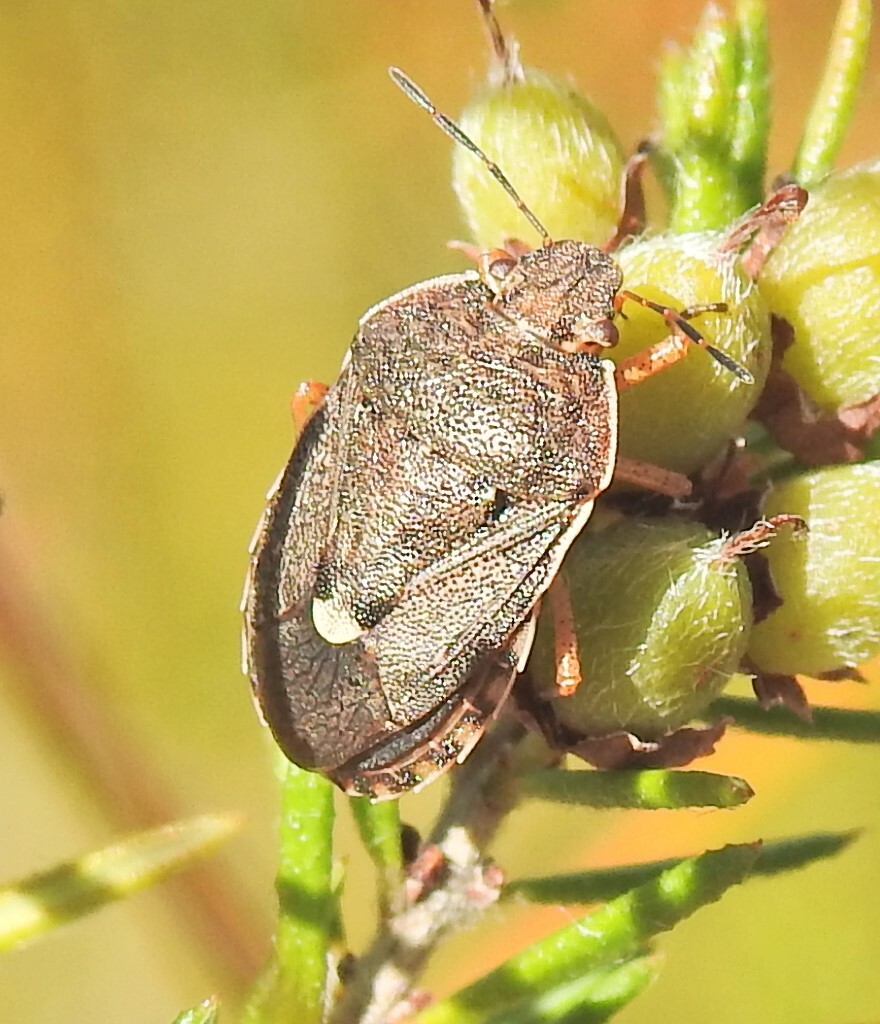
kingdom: Animalia
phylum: Arthropoda
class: Insecta
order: Hemiptera
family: Pentatomidae
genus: Dictyotus
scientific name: Dictyotus
